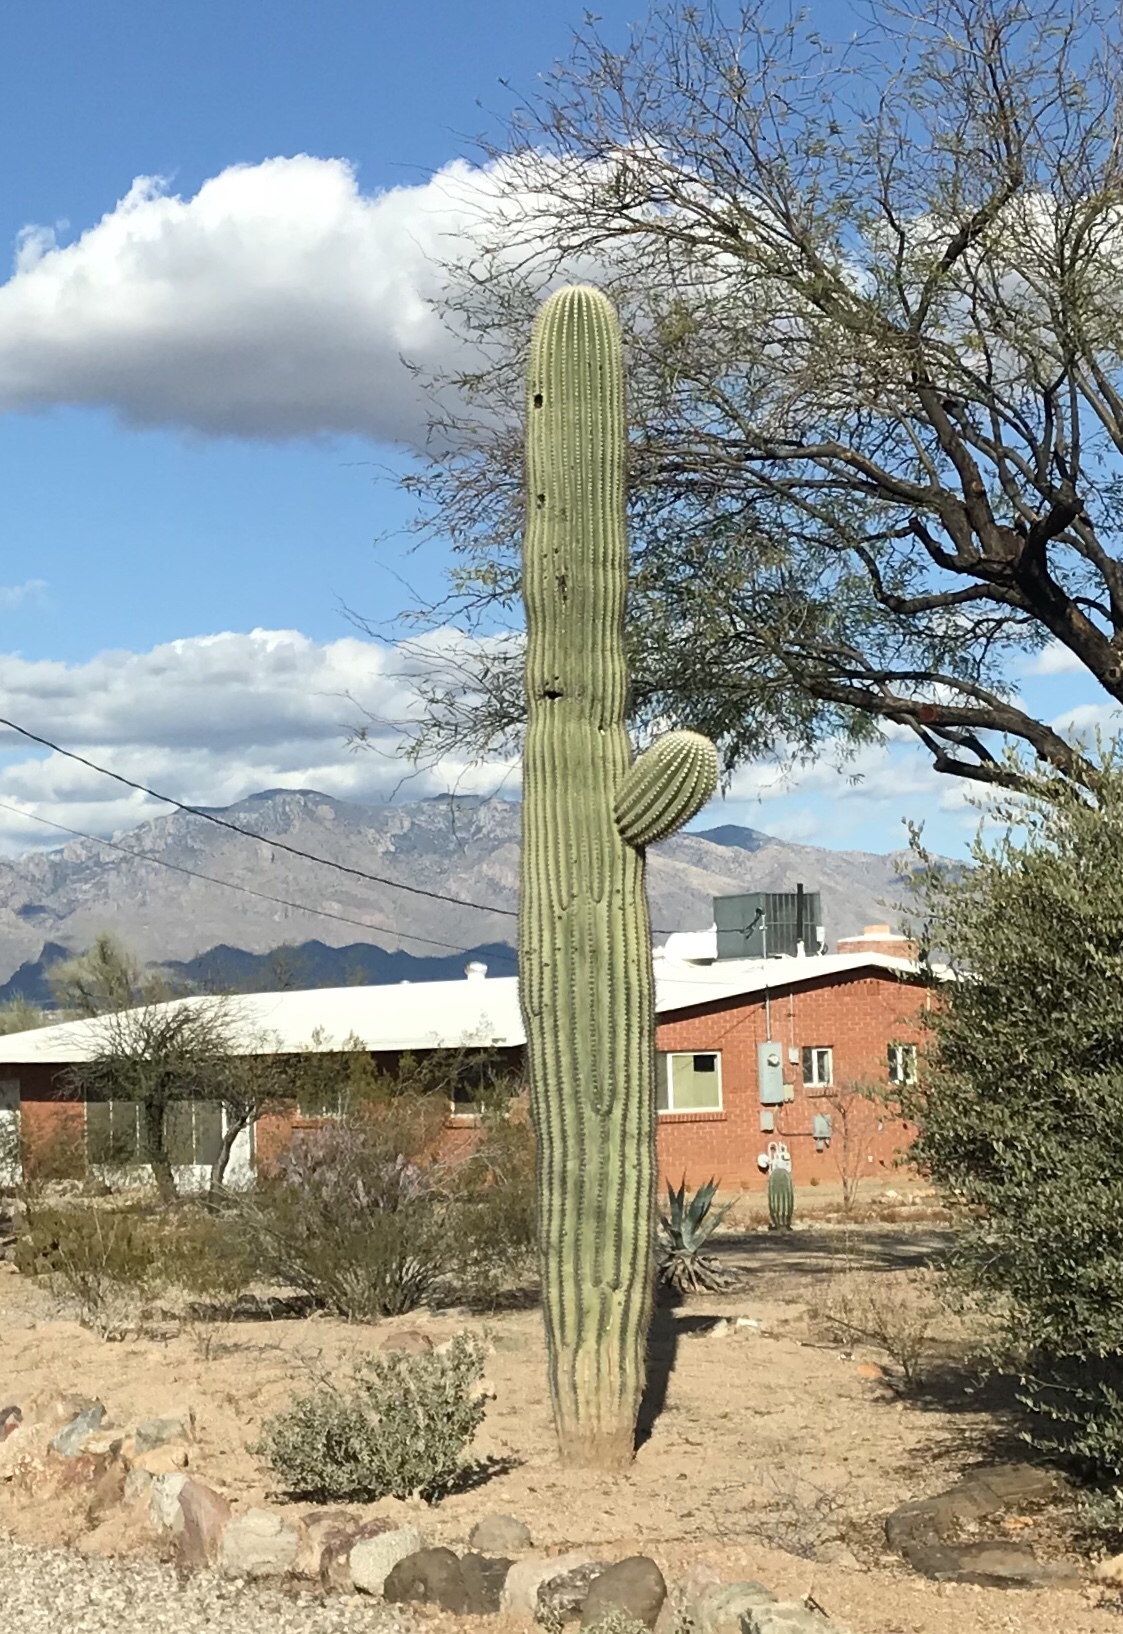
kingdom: Plantae
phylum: Tracheophyta
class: Magnoliopsida
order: Caryophyllales
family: Cactaceae
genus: Carnegiea
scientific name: Carnegiea gigantea
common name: Saguaro
